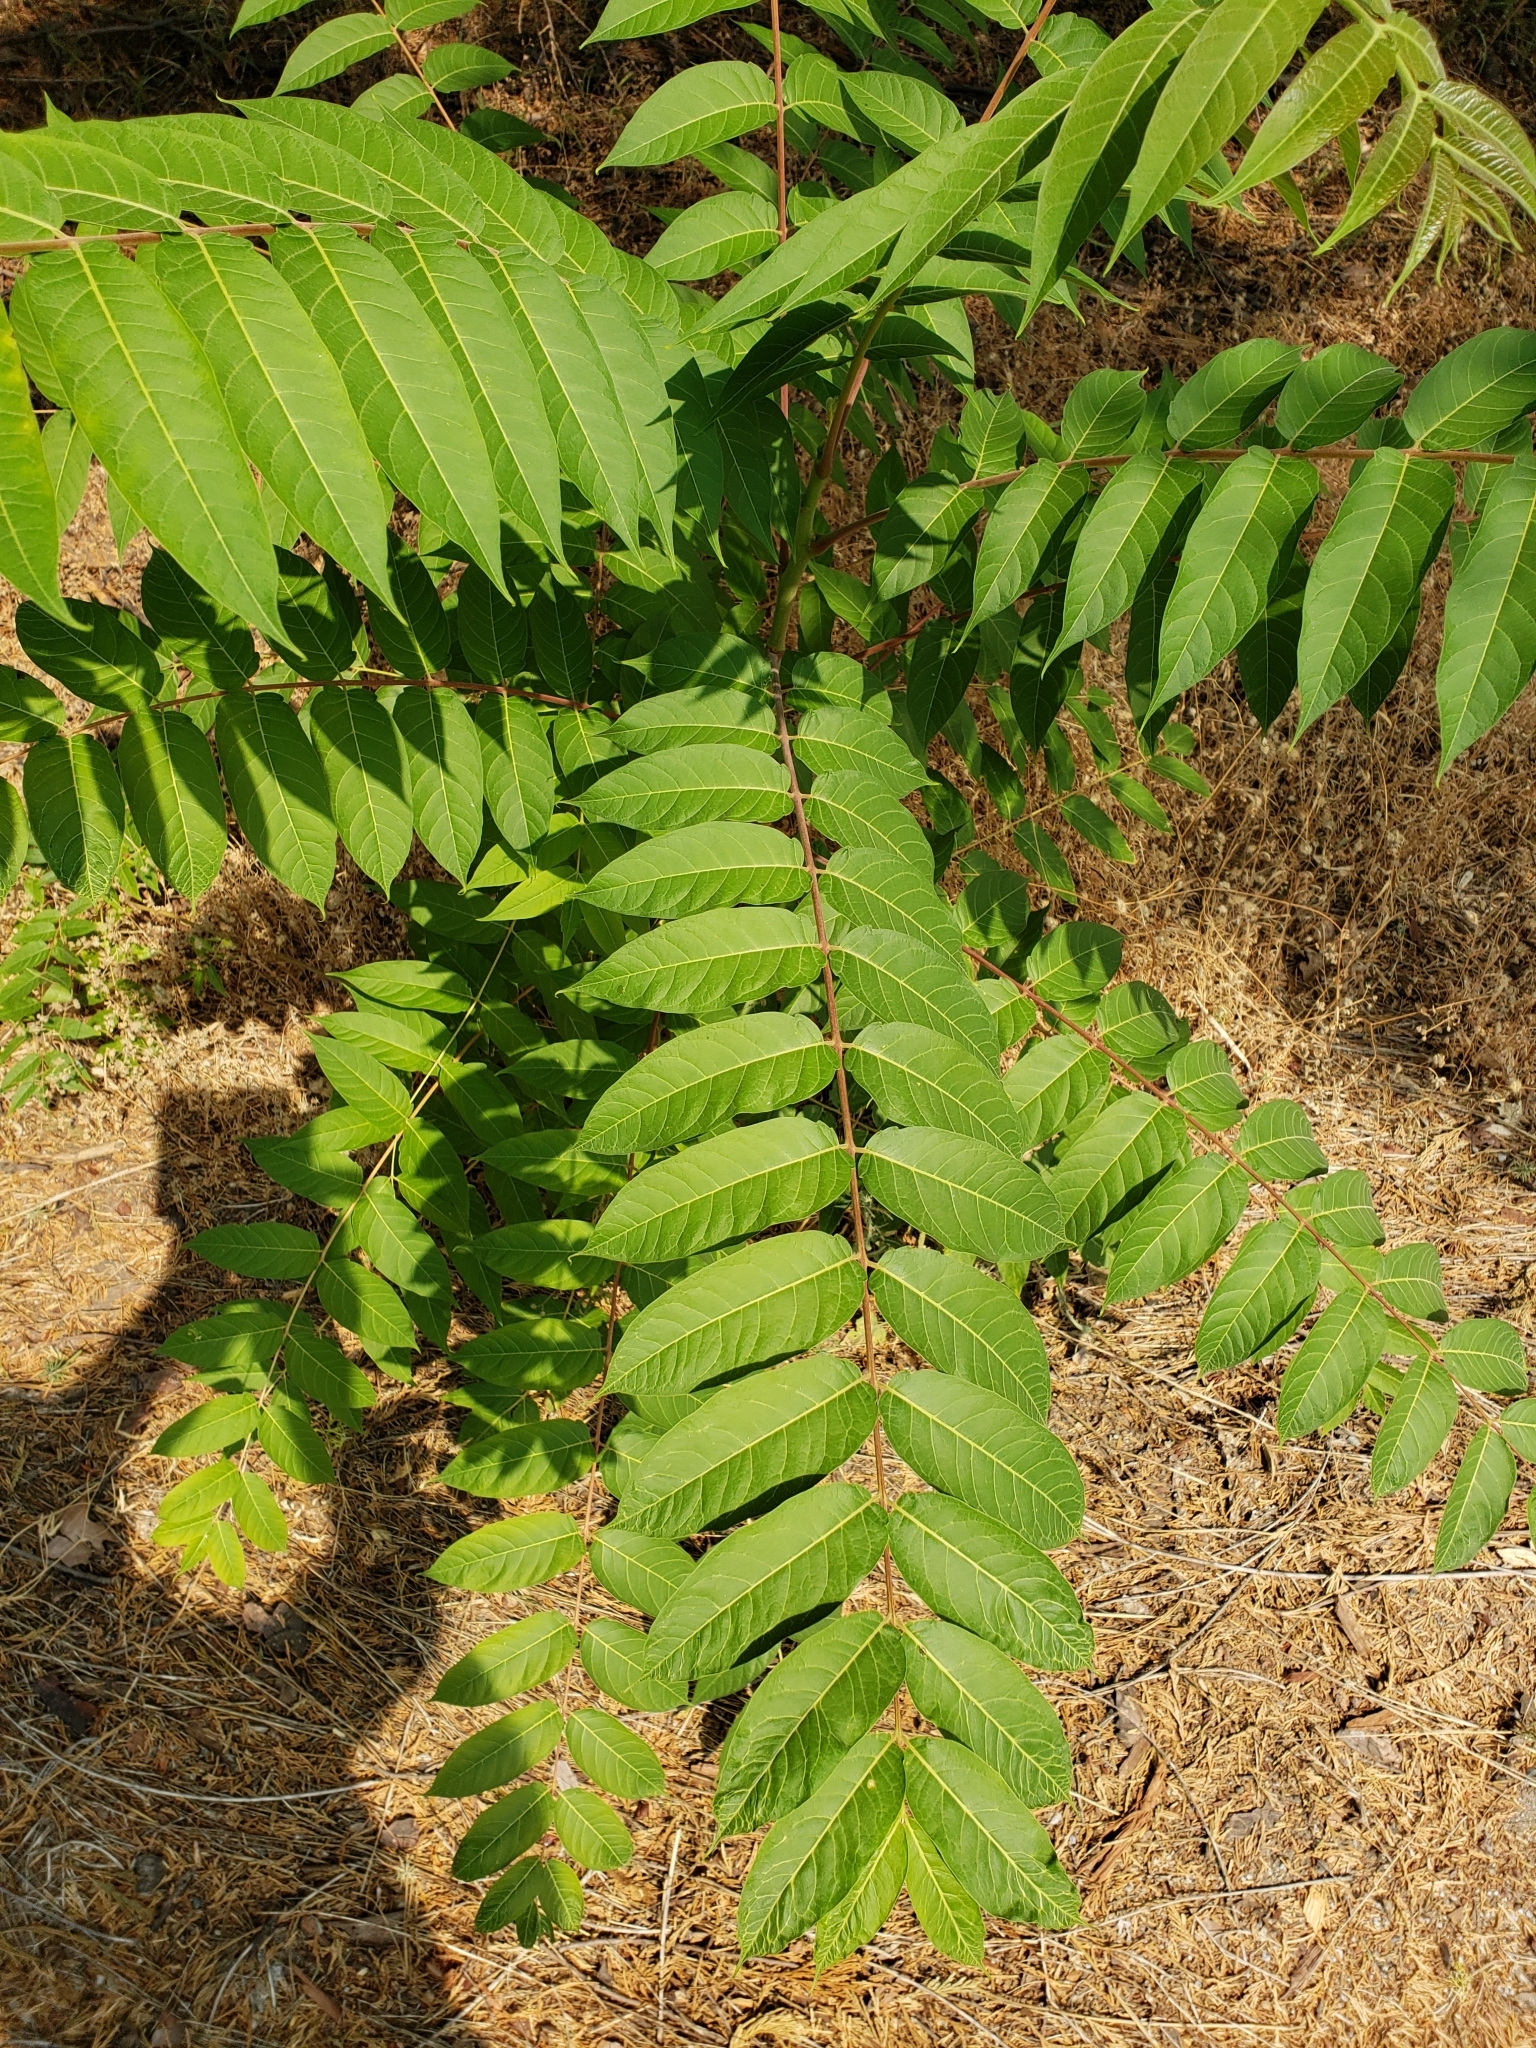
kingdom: Plantae
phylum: Tracheophyta
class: Magnoliopsida
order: Sapindales
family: Simaroubaceae
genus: Ailanthus
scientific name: Ailanthus altissima
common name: Tree-of-heaven
